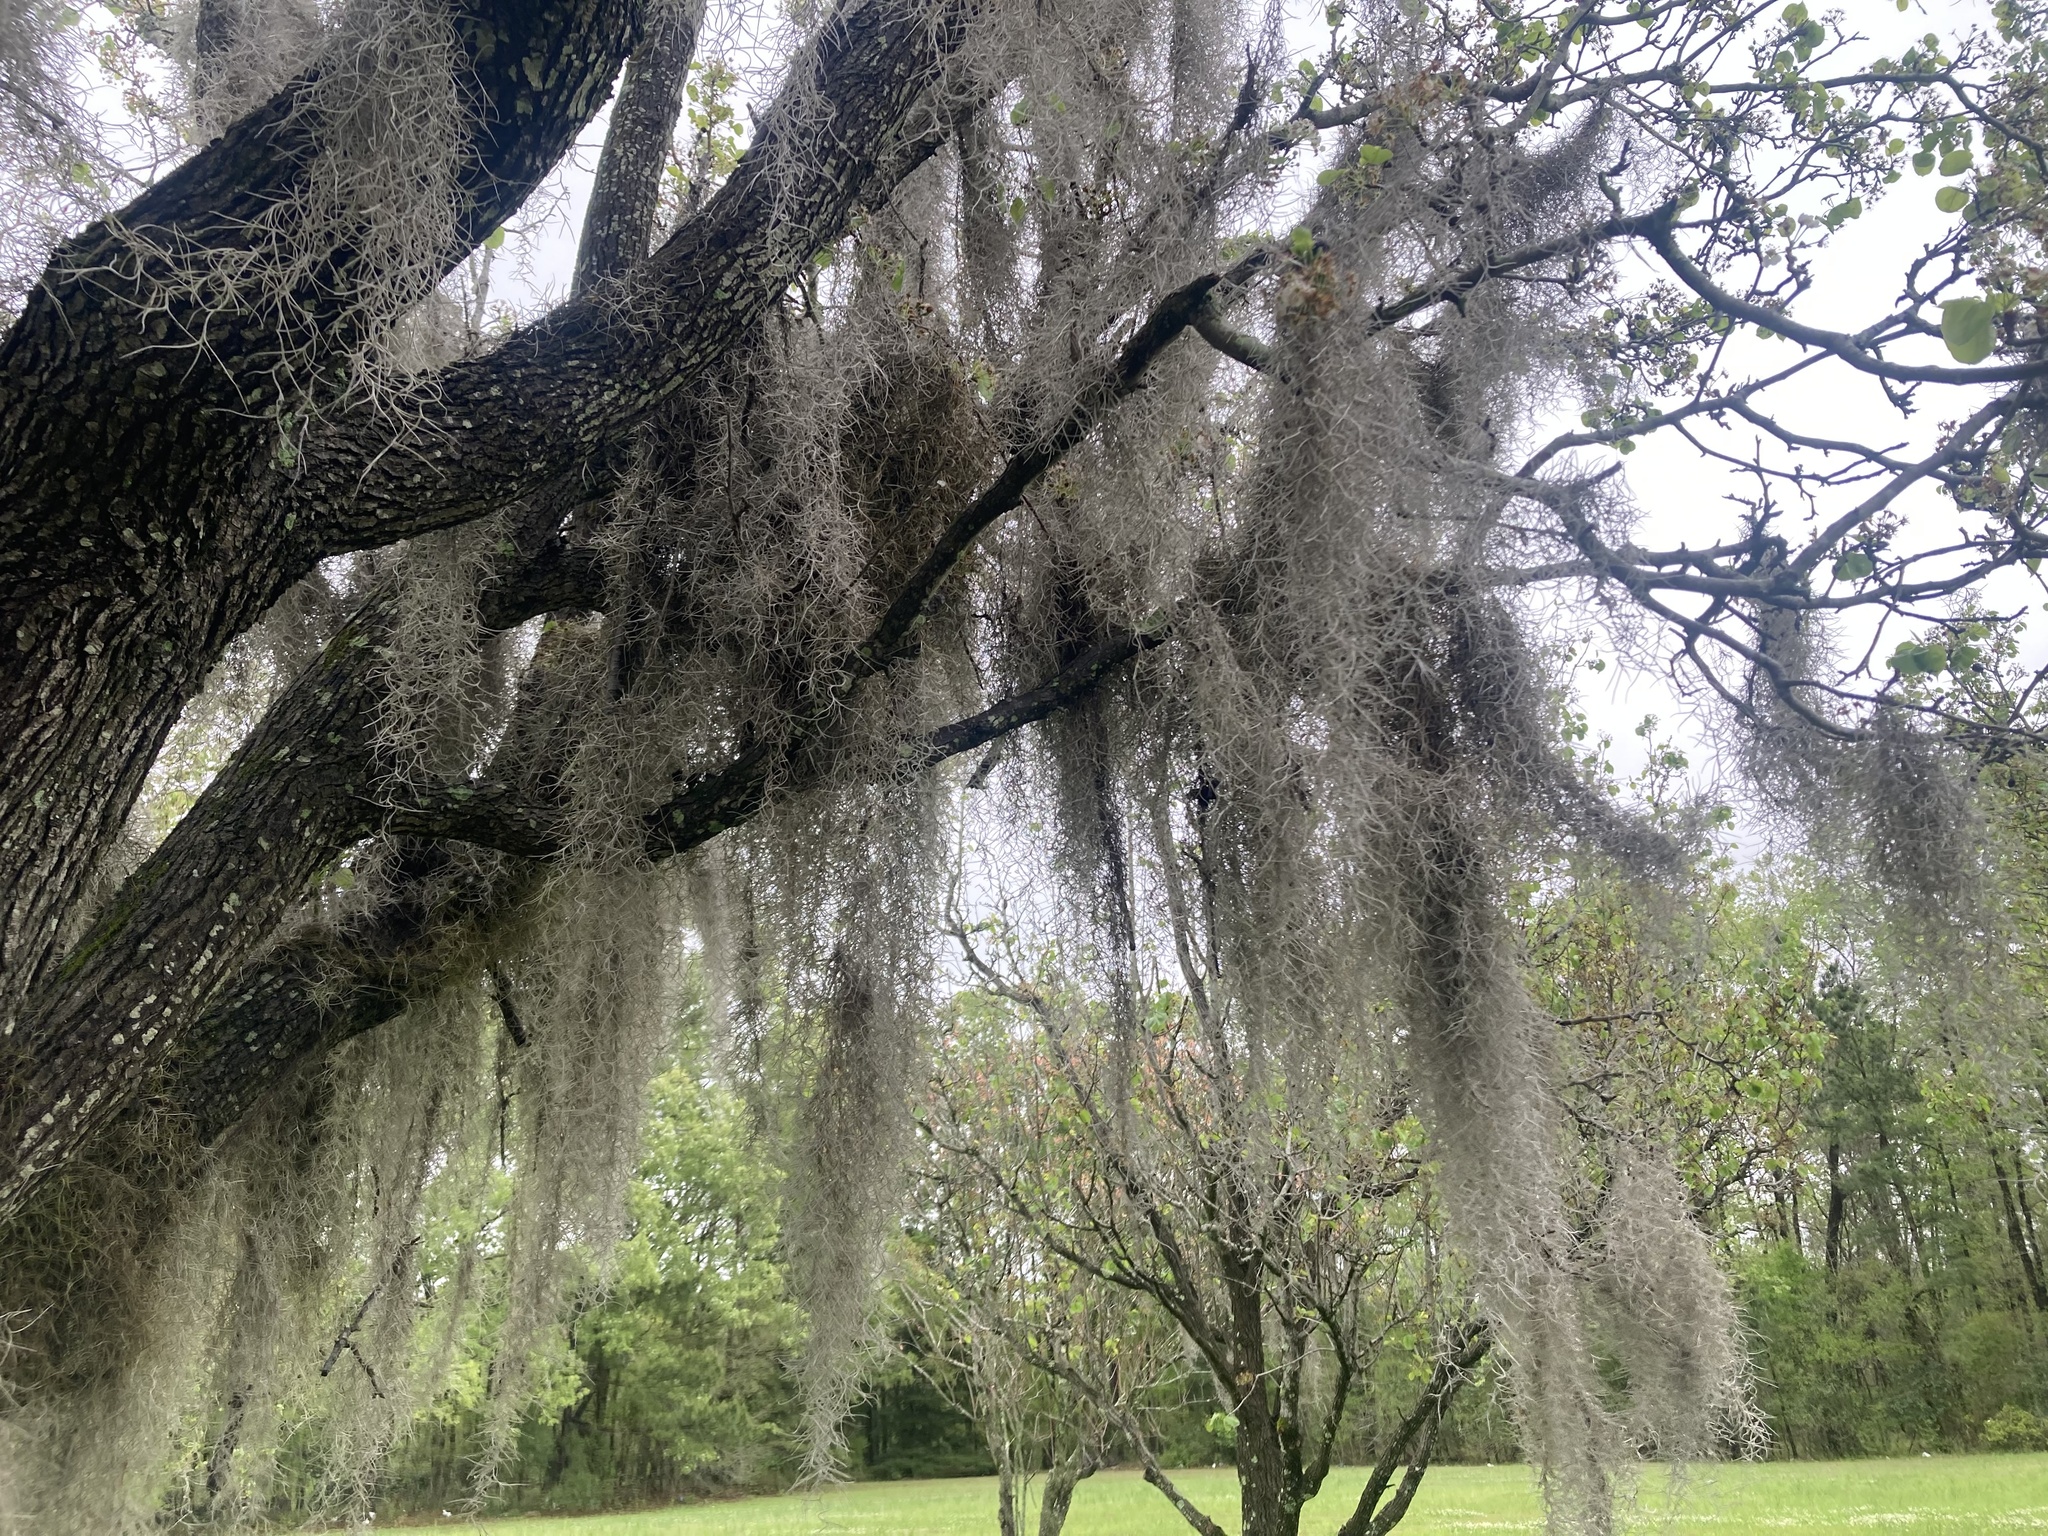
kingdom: Plantae
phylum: Tracheophyta
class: Liliopsida
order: Poales
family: Bromeliaceae
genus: Tillandsia
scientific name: Tillandsia usneoides
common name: Spanish moss
